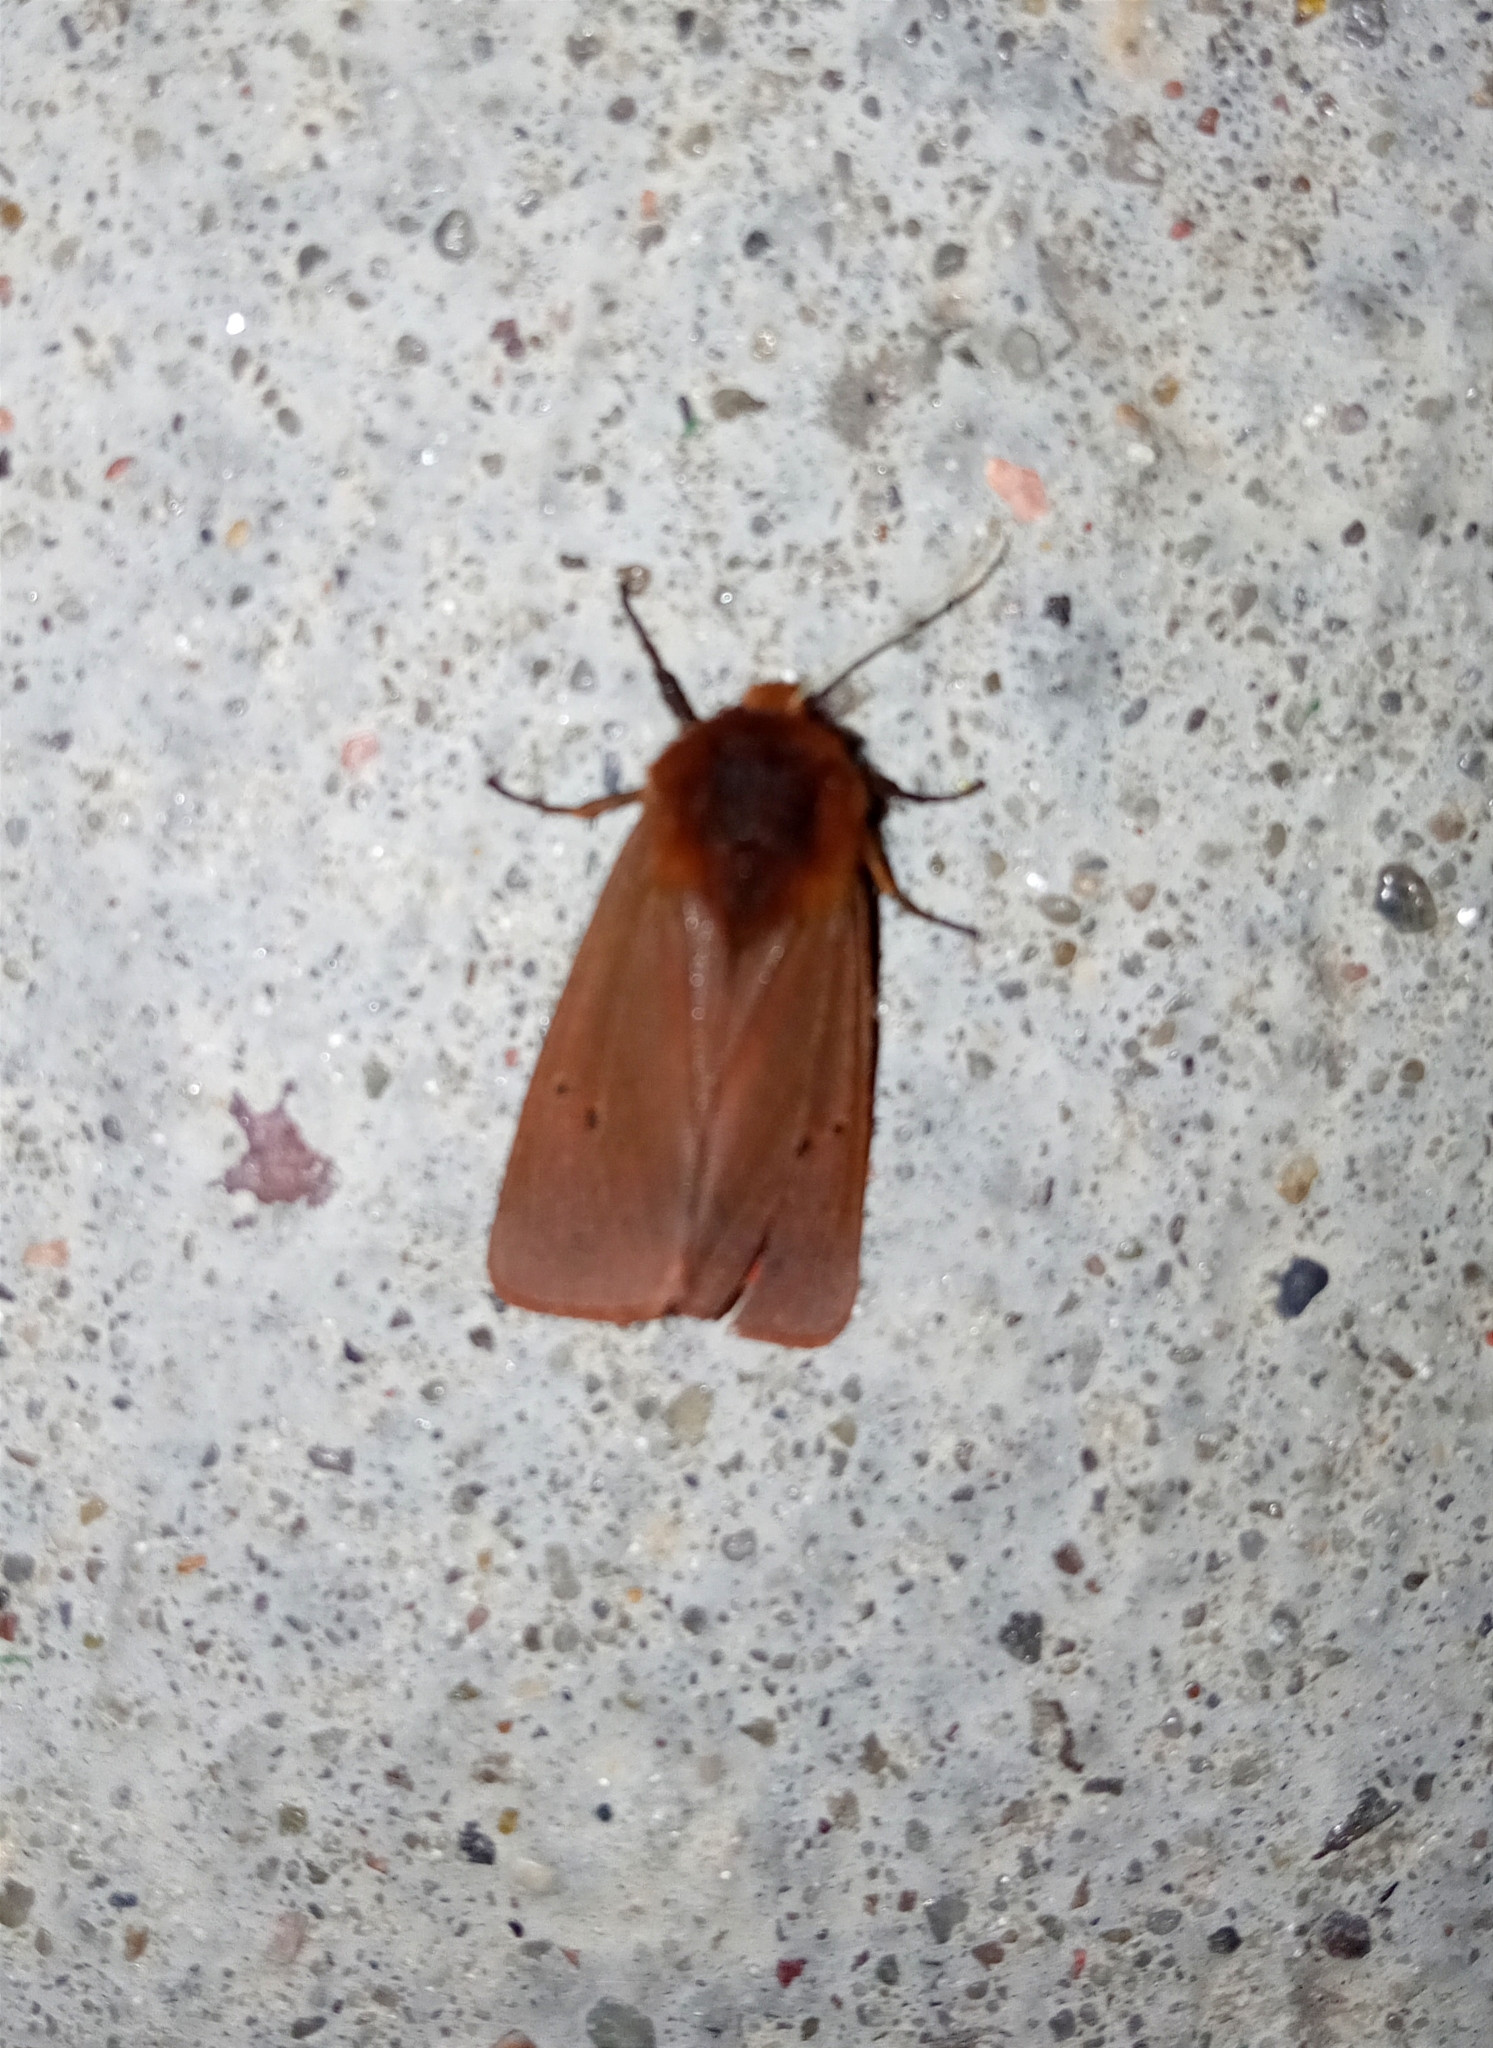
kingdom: Animalia
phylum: Arthropoda
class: Insecta
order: Lepidoptera
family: Erebidae
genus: Phragmatobia
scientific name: Phragmatobia fuliginosa
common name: Ruby tiger
